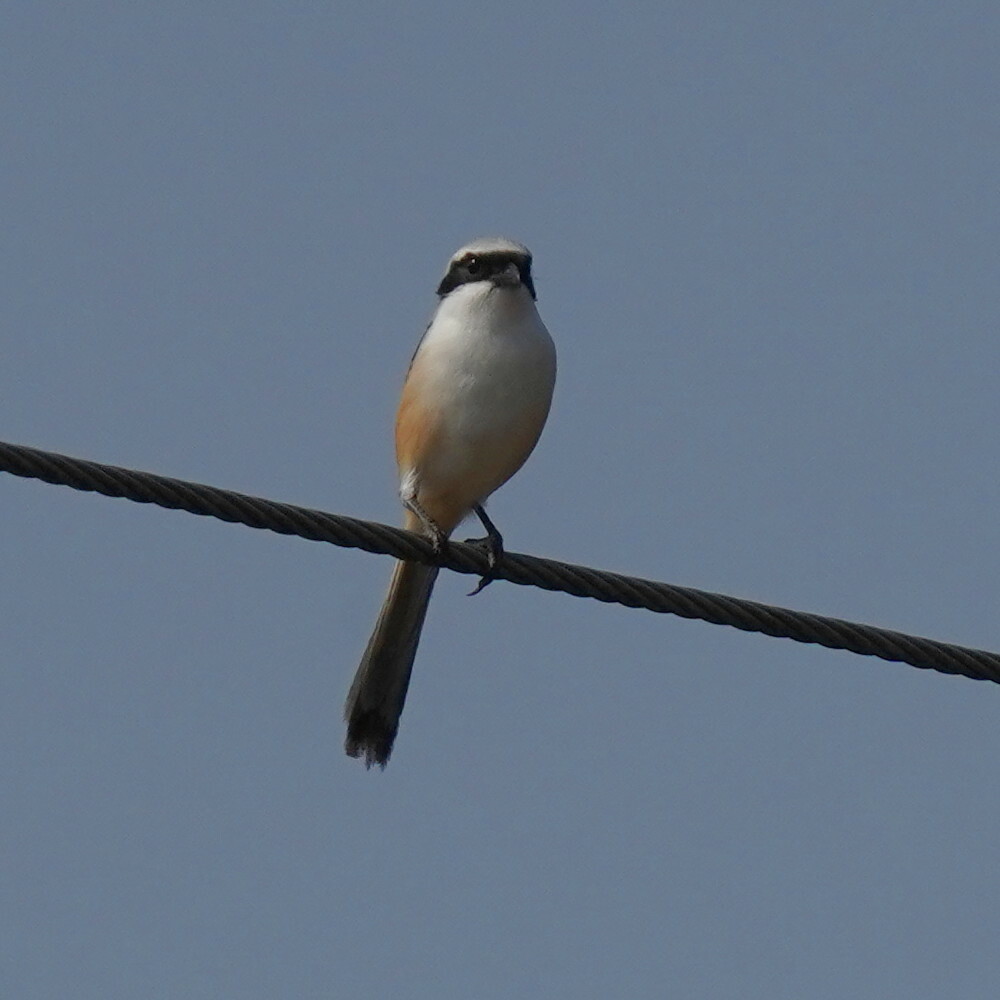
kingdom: Animalia
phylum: Chordata
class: Aves
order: Passeriformes
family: Laniidae
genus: Lanius
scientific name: Lanius schach
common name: Long-tailed shrike
